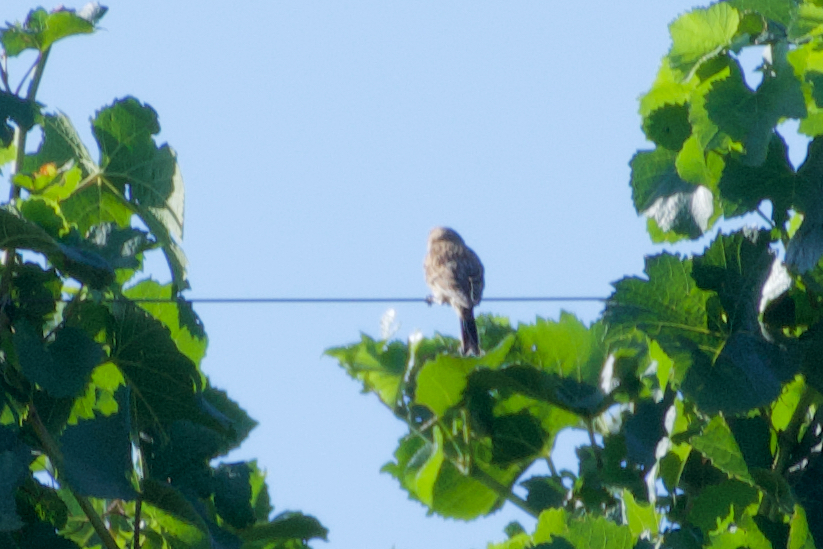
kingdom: Animalia
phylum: Chordata
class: Aves
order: Passeriformes
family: Fringillidae
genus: Linaria
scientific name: Linaria cannabina
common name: Common linnet
